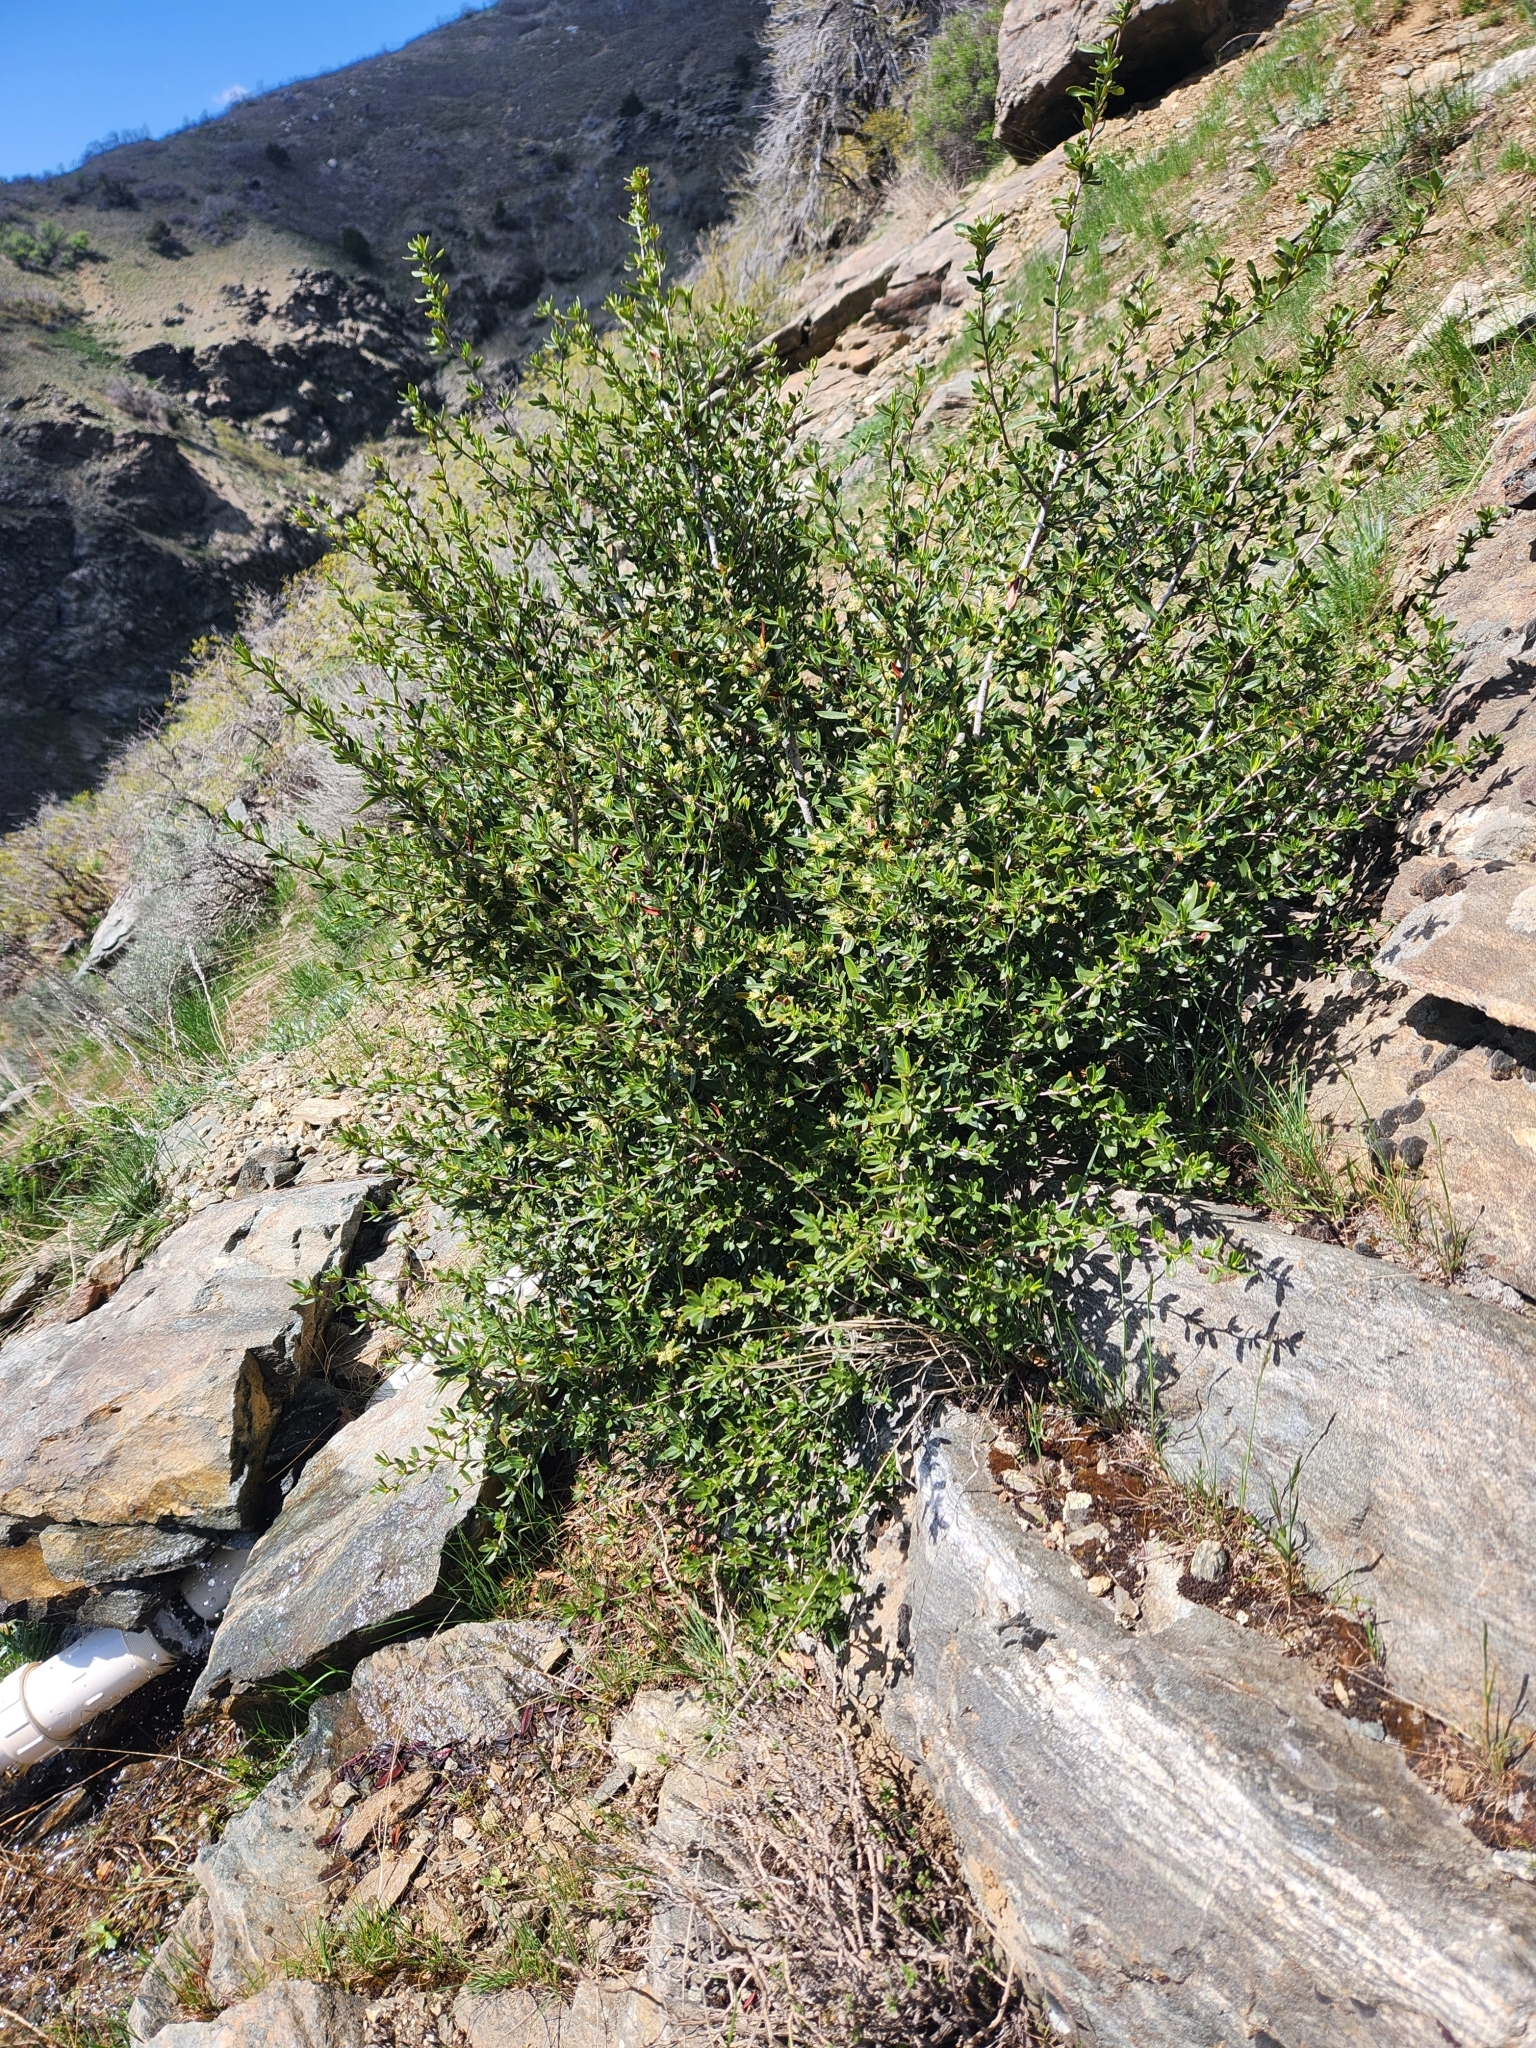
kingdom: Plantae
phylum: Tracheophyta
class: Magnoliopsida
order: Rosales
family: Rosaceae
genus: Cercocarpus
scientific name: Cercocarpus ledifolius
